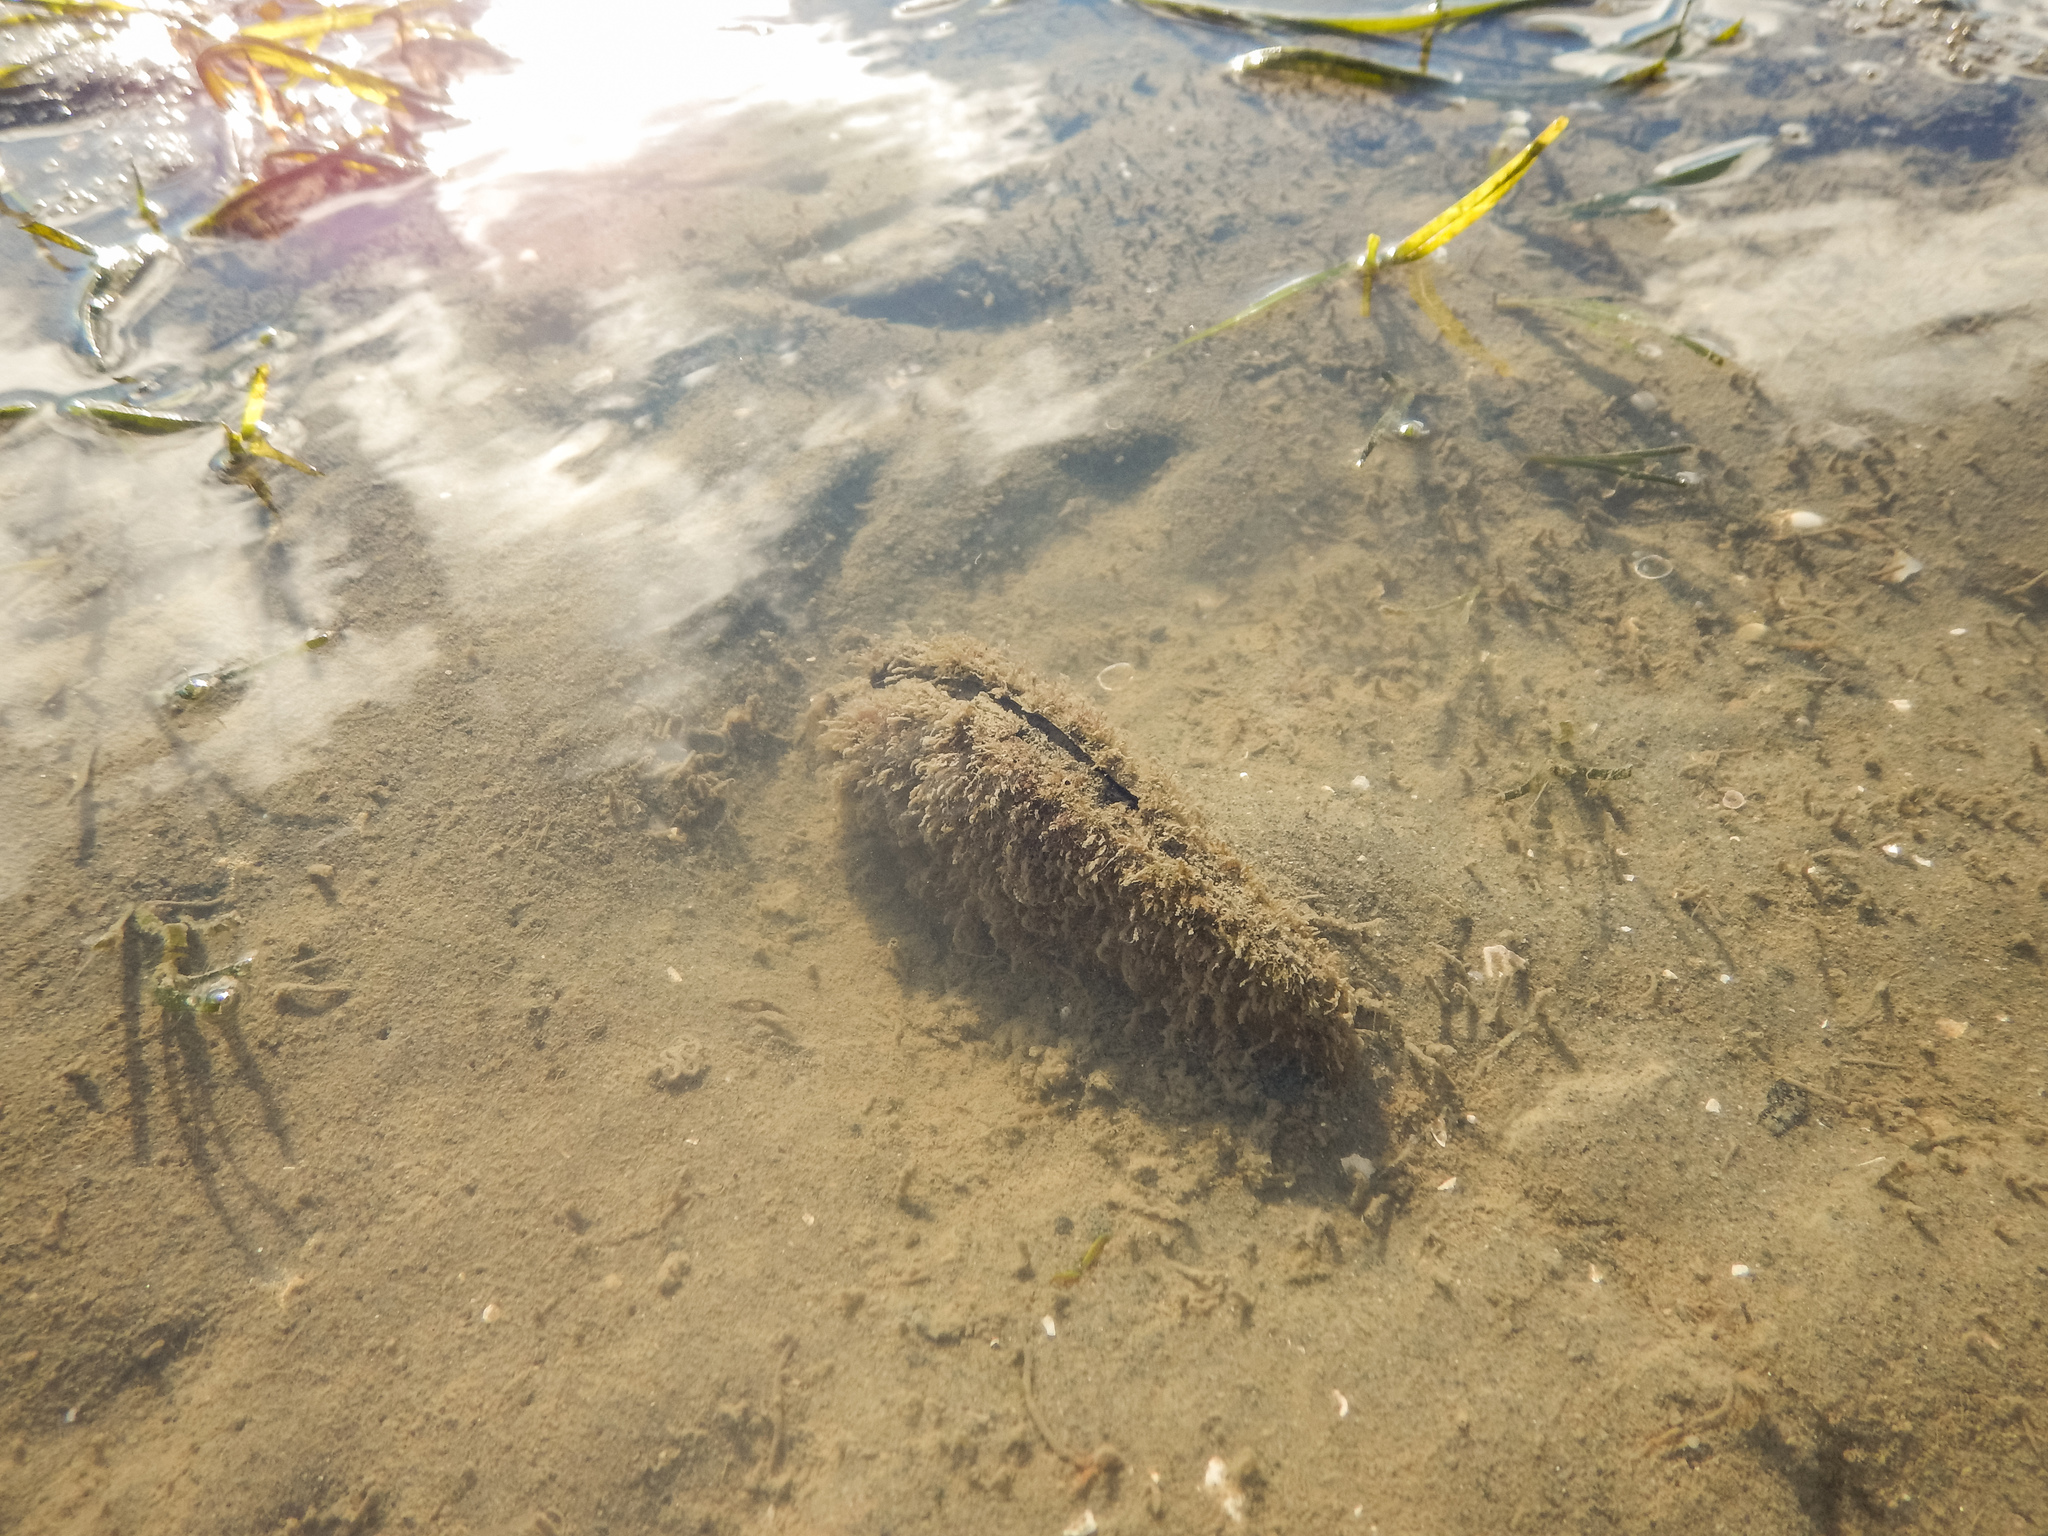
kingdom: Animalia
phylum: Mollusca
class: Bivalvia
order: Ostreida
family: Pinnidae
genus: Atrina
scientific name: Atrina zelandica
